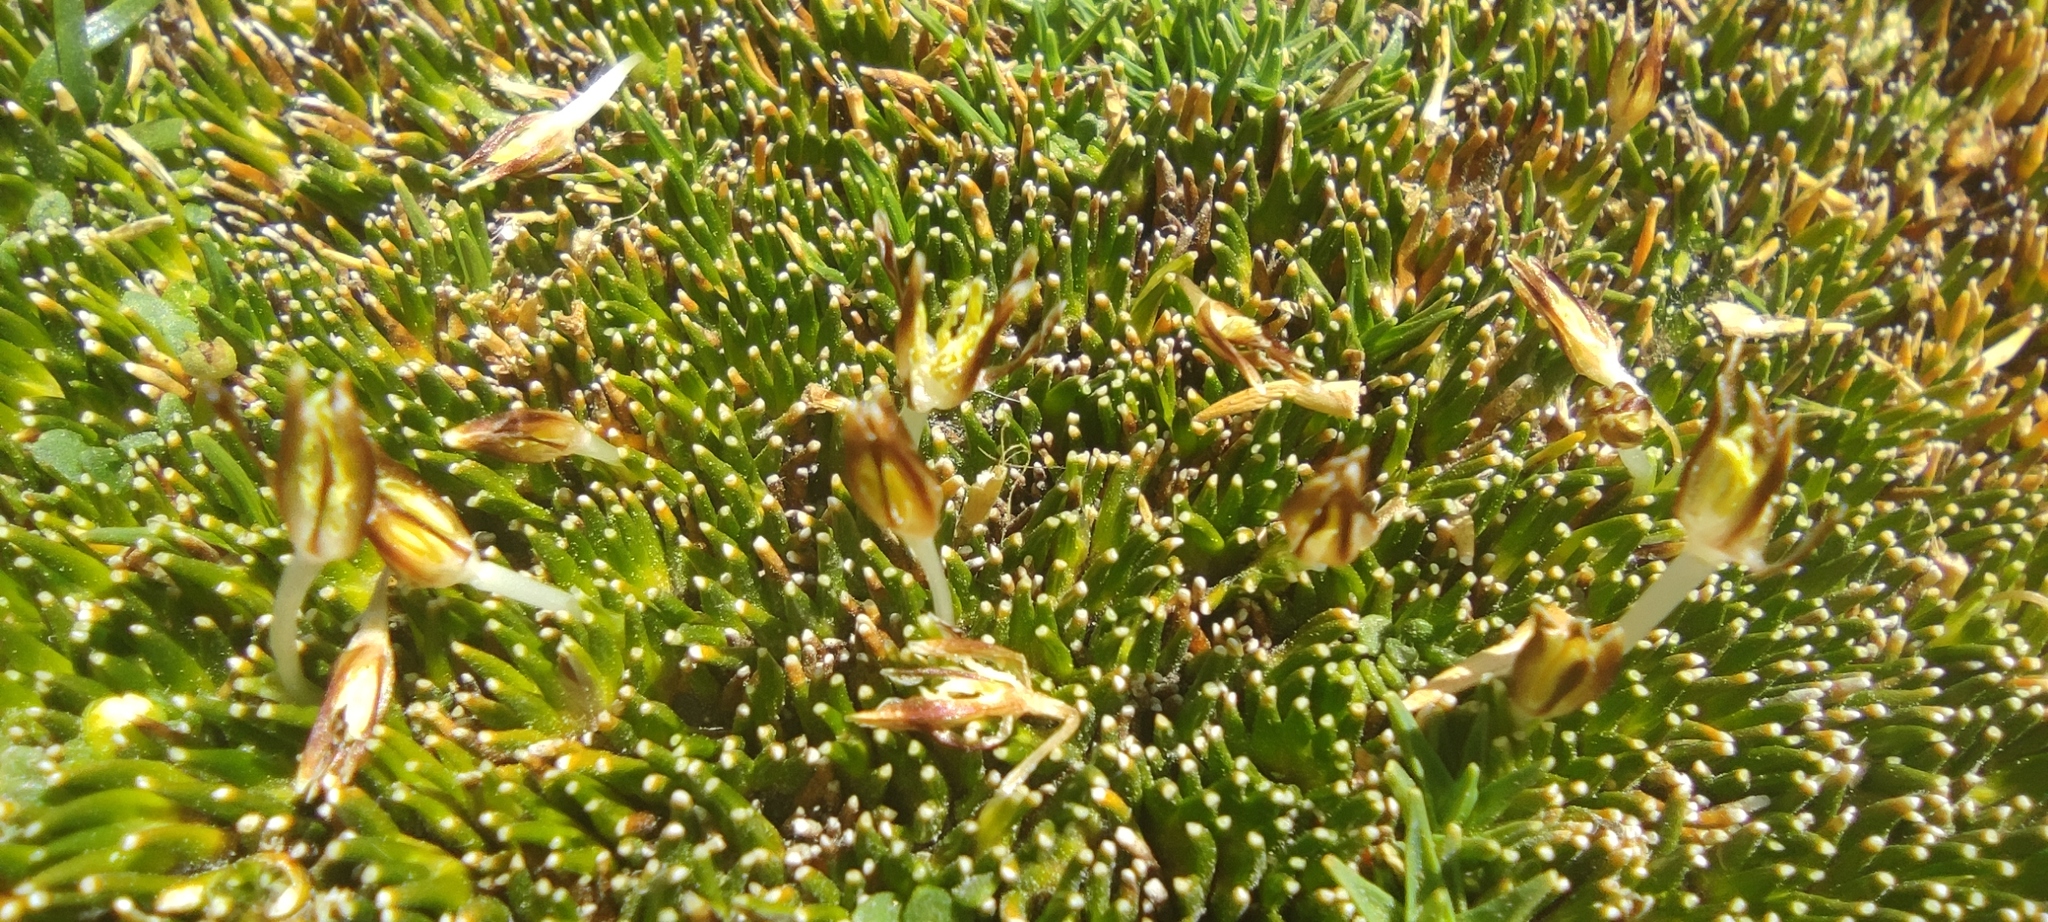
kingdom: Plantae
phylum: Tracheophyta
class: Liliopsida
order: Poales
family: Juncaceae
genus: Distichia
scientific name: Distichia muscoides
